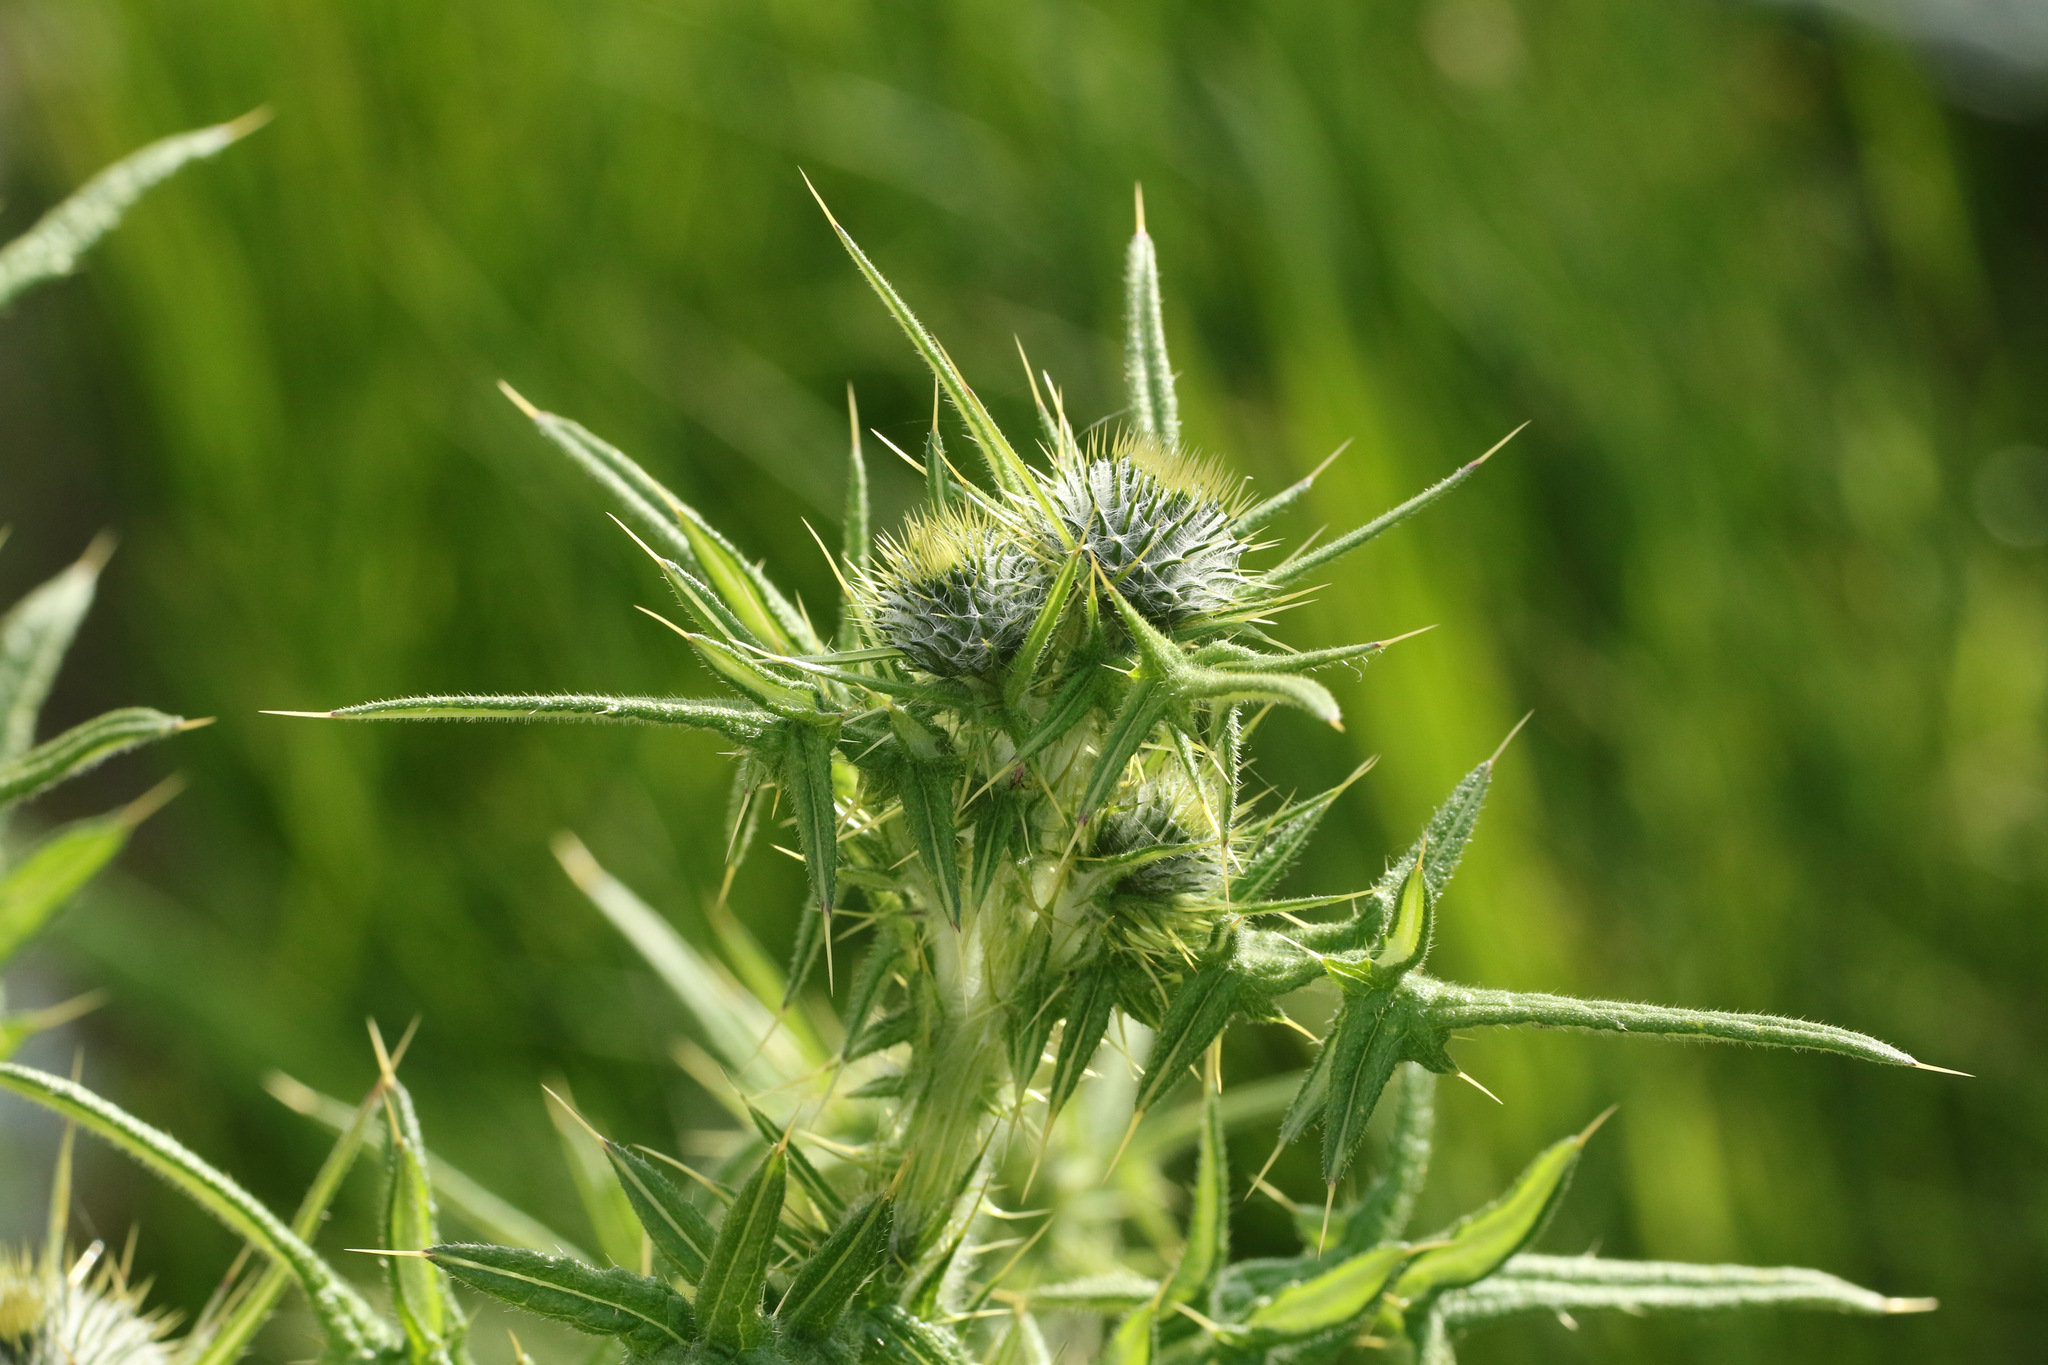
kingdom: Plantae
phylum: Tracheophyta
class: Magnoliopsida
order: Asterales
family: Asteraceae
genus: Cirsium
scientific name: Cirsium vulgare
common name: Bull thistle
